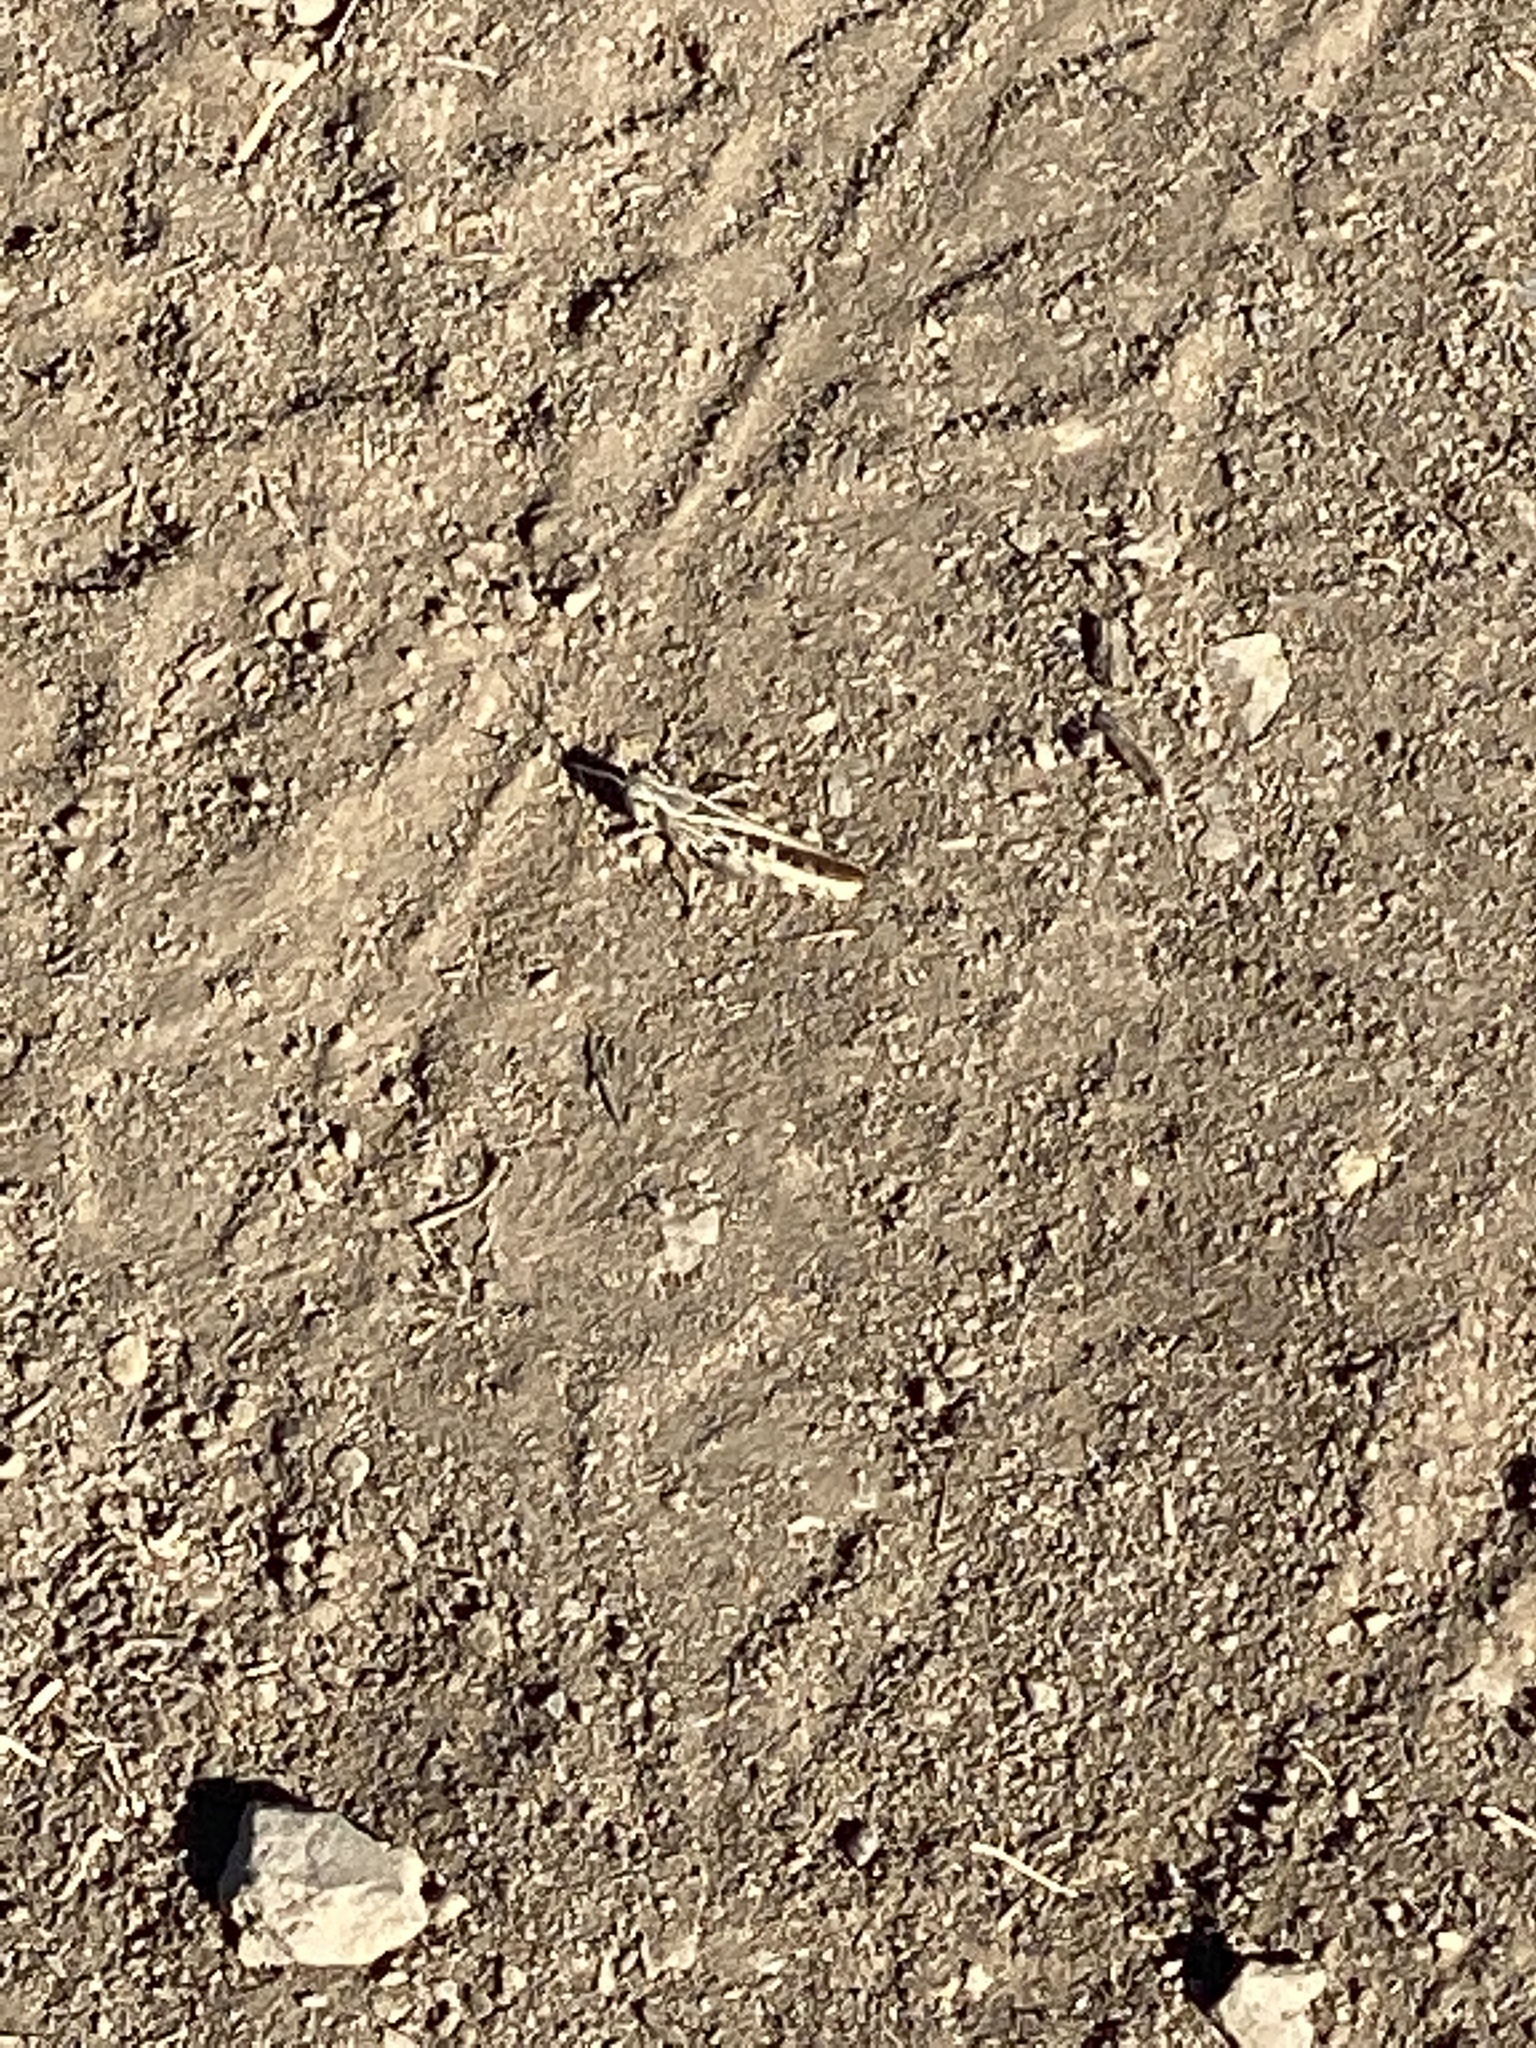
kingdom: Animalia
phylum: Arthropoda
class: Insecta
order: Orthoptera
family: Acrididae
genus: Camnula
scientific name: Camnula pellucida
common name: Clear-winged grasshopper
